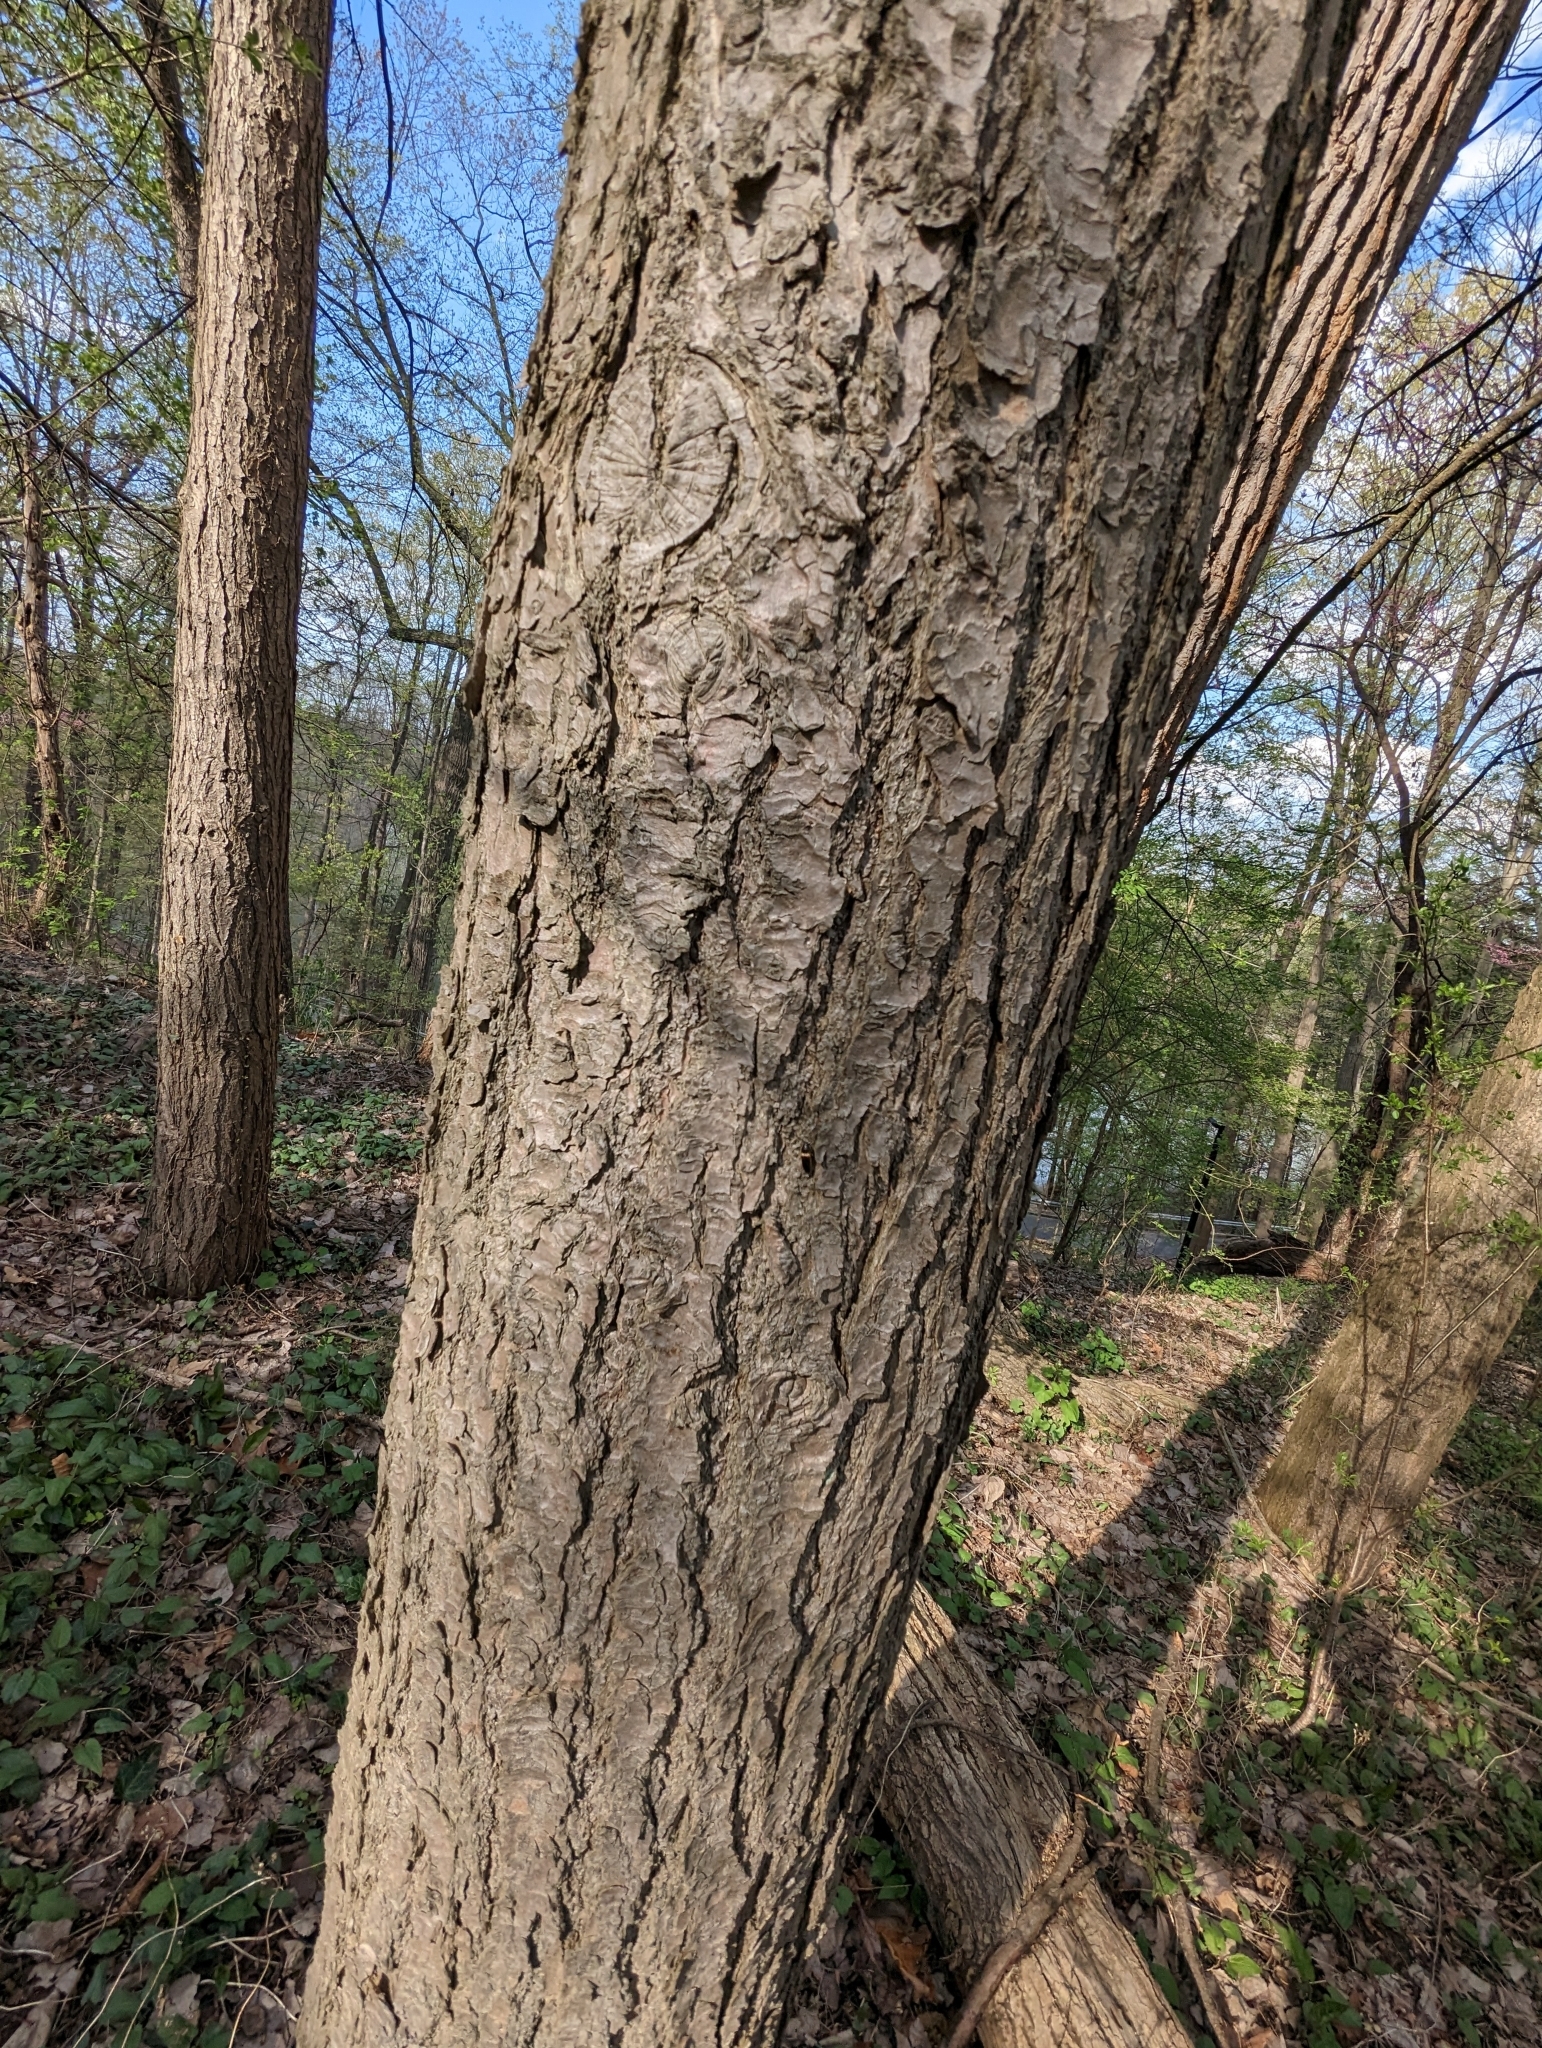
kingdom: Animalia
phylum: Arthropoda
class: Insecta
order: Coleoptera
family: Elateridae
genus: Ampedus
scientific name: Ampedus oblessus
